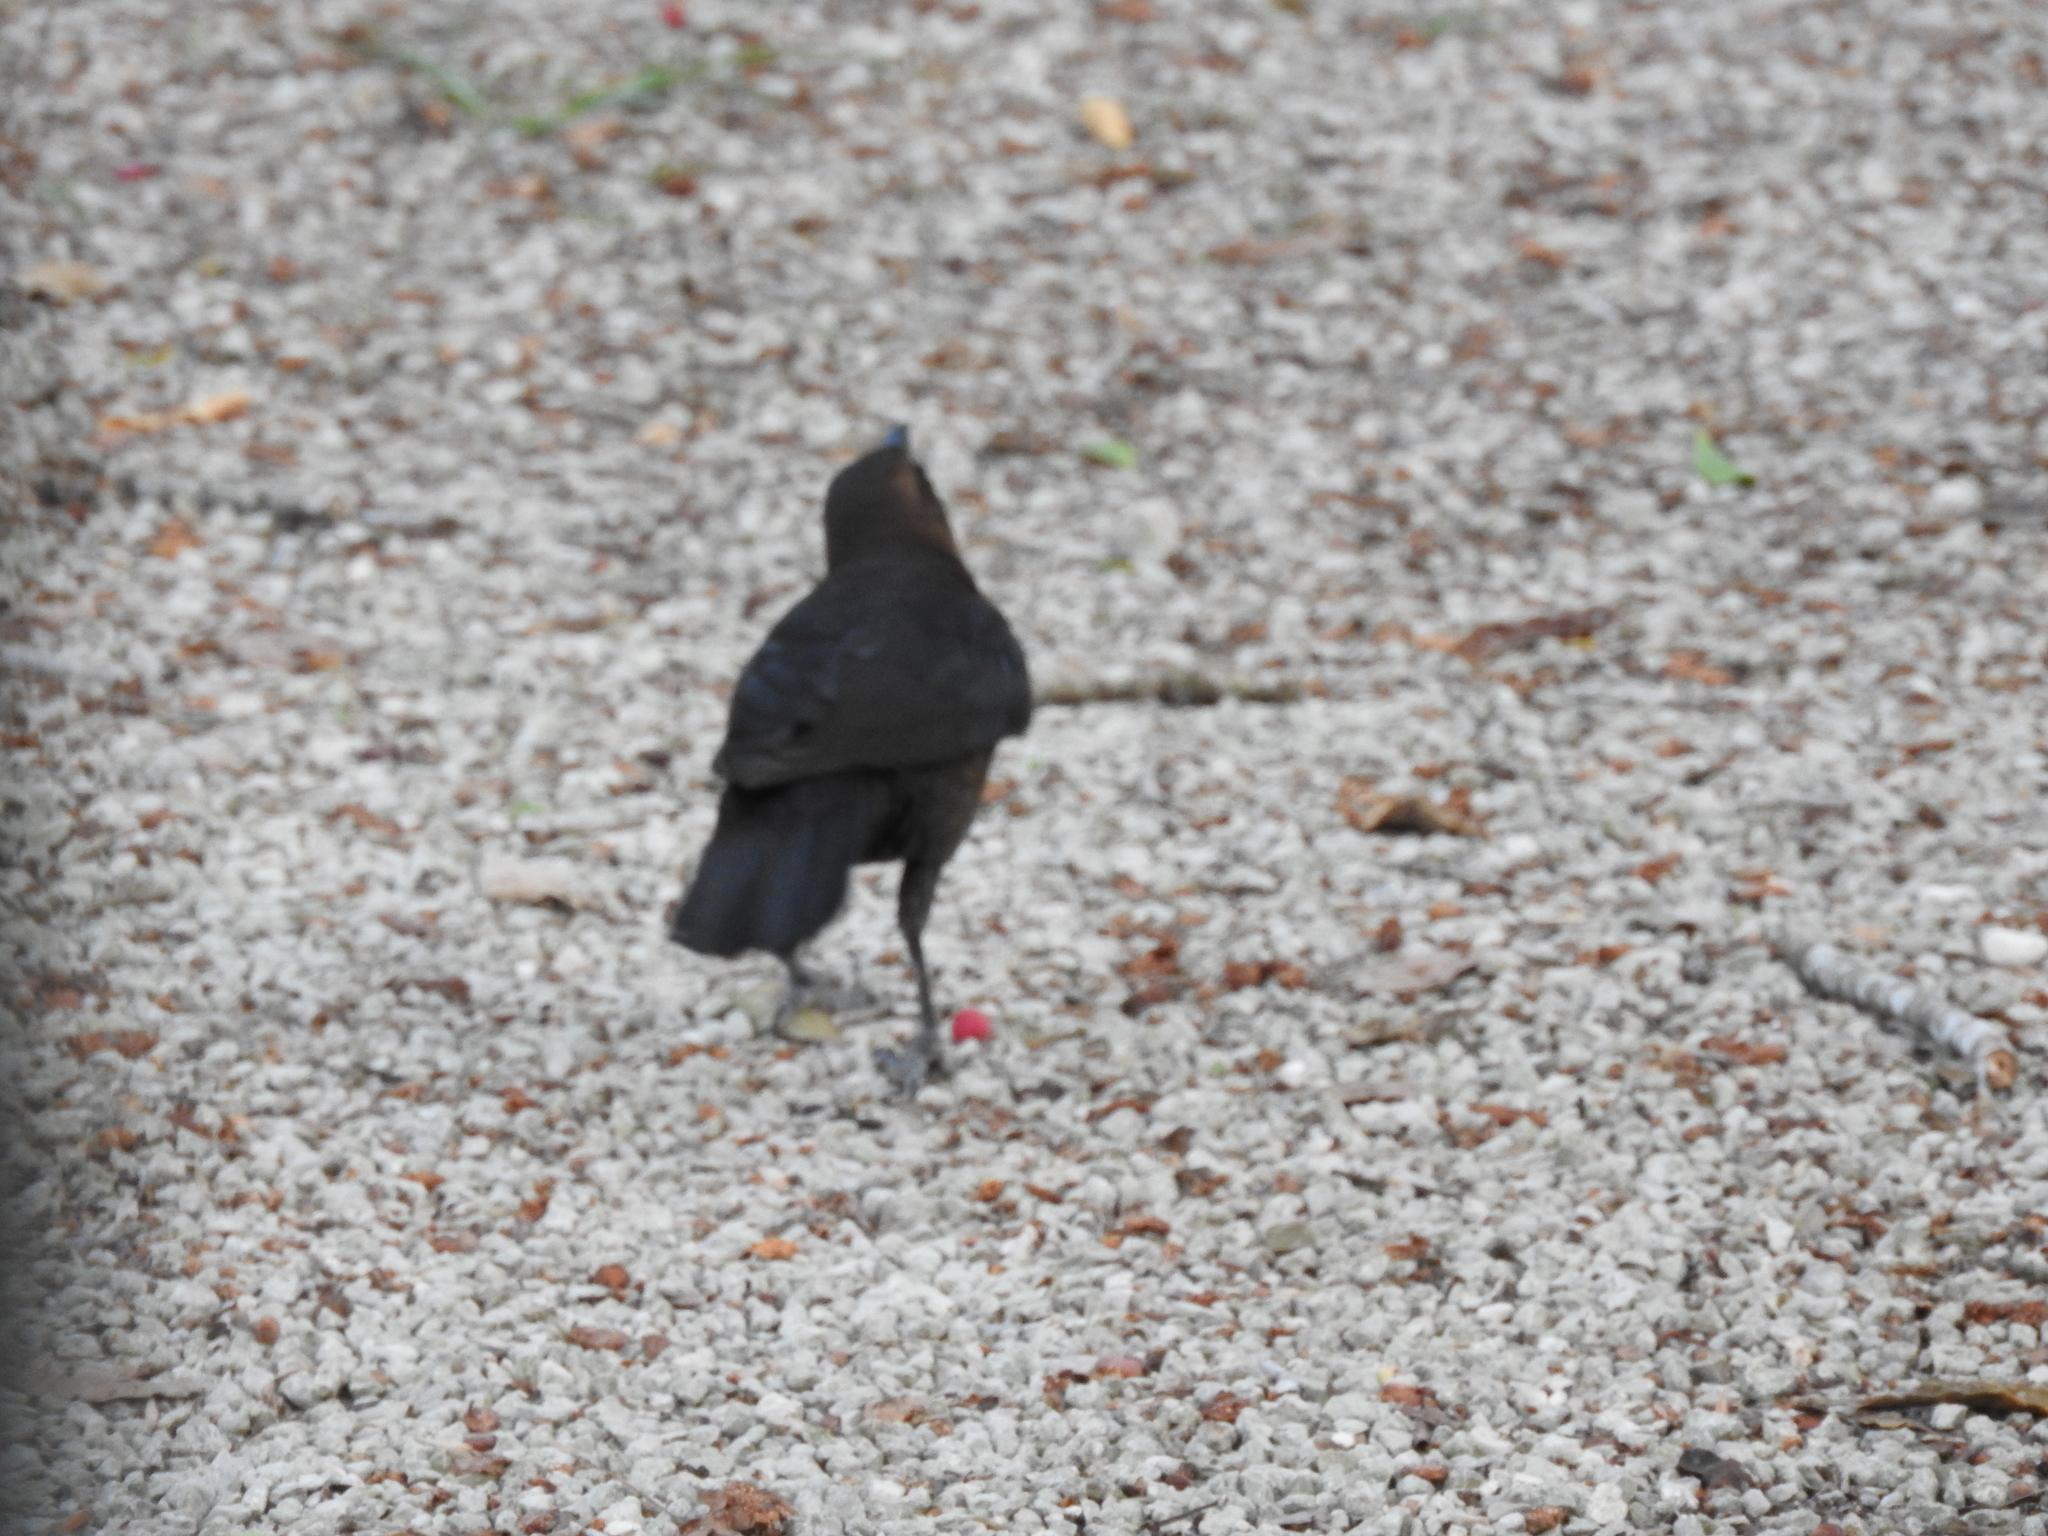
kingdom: Animalia
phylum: Chordata
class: Aves
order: Passeriformes
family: Icteridae
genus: Quiscalus
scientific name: Quiscalus mexicanus
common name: Great-tailed grackle
